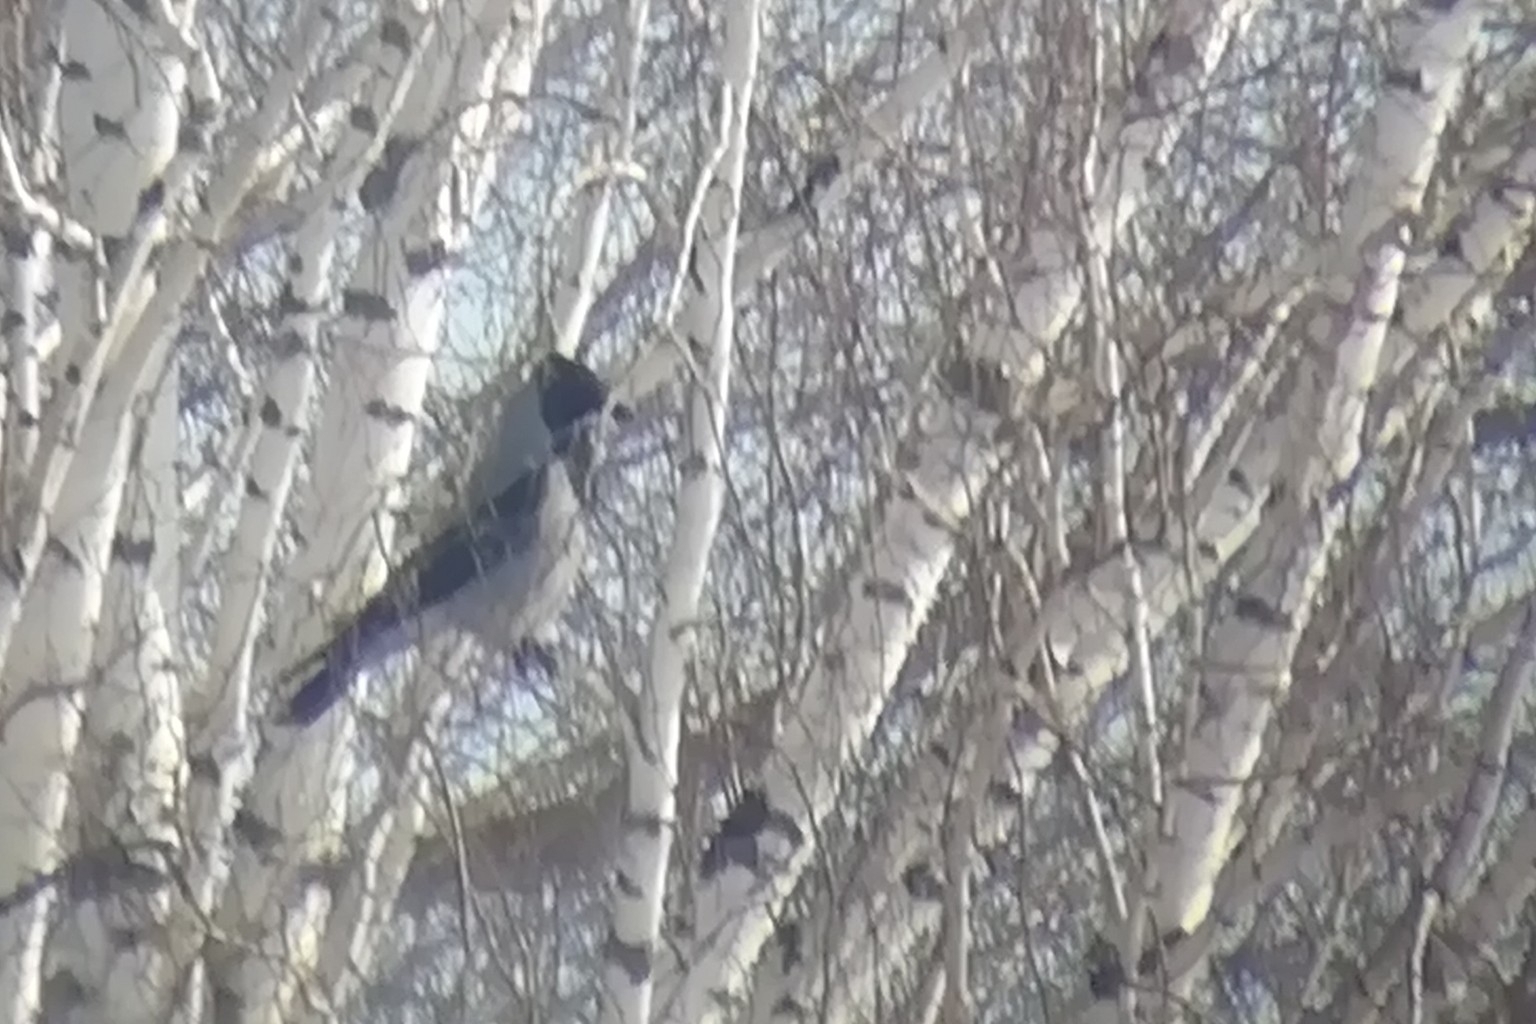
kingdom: Animalia
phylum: Chordata
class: Aves
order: Passeriformes
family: Corvidae
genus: Corvus
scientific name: Corvus cornix
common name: Hooded crow
